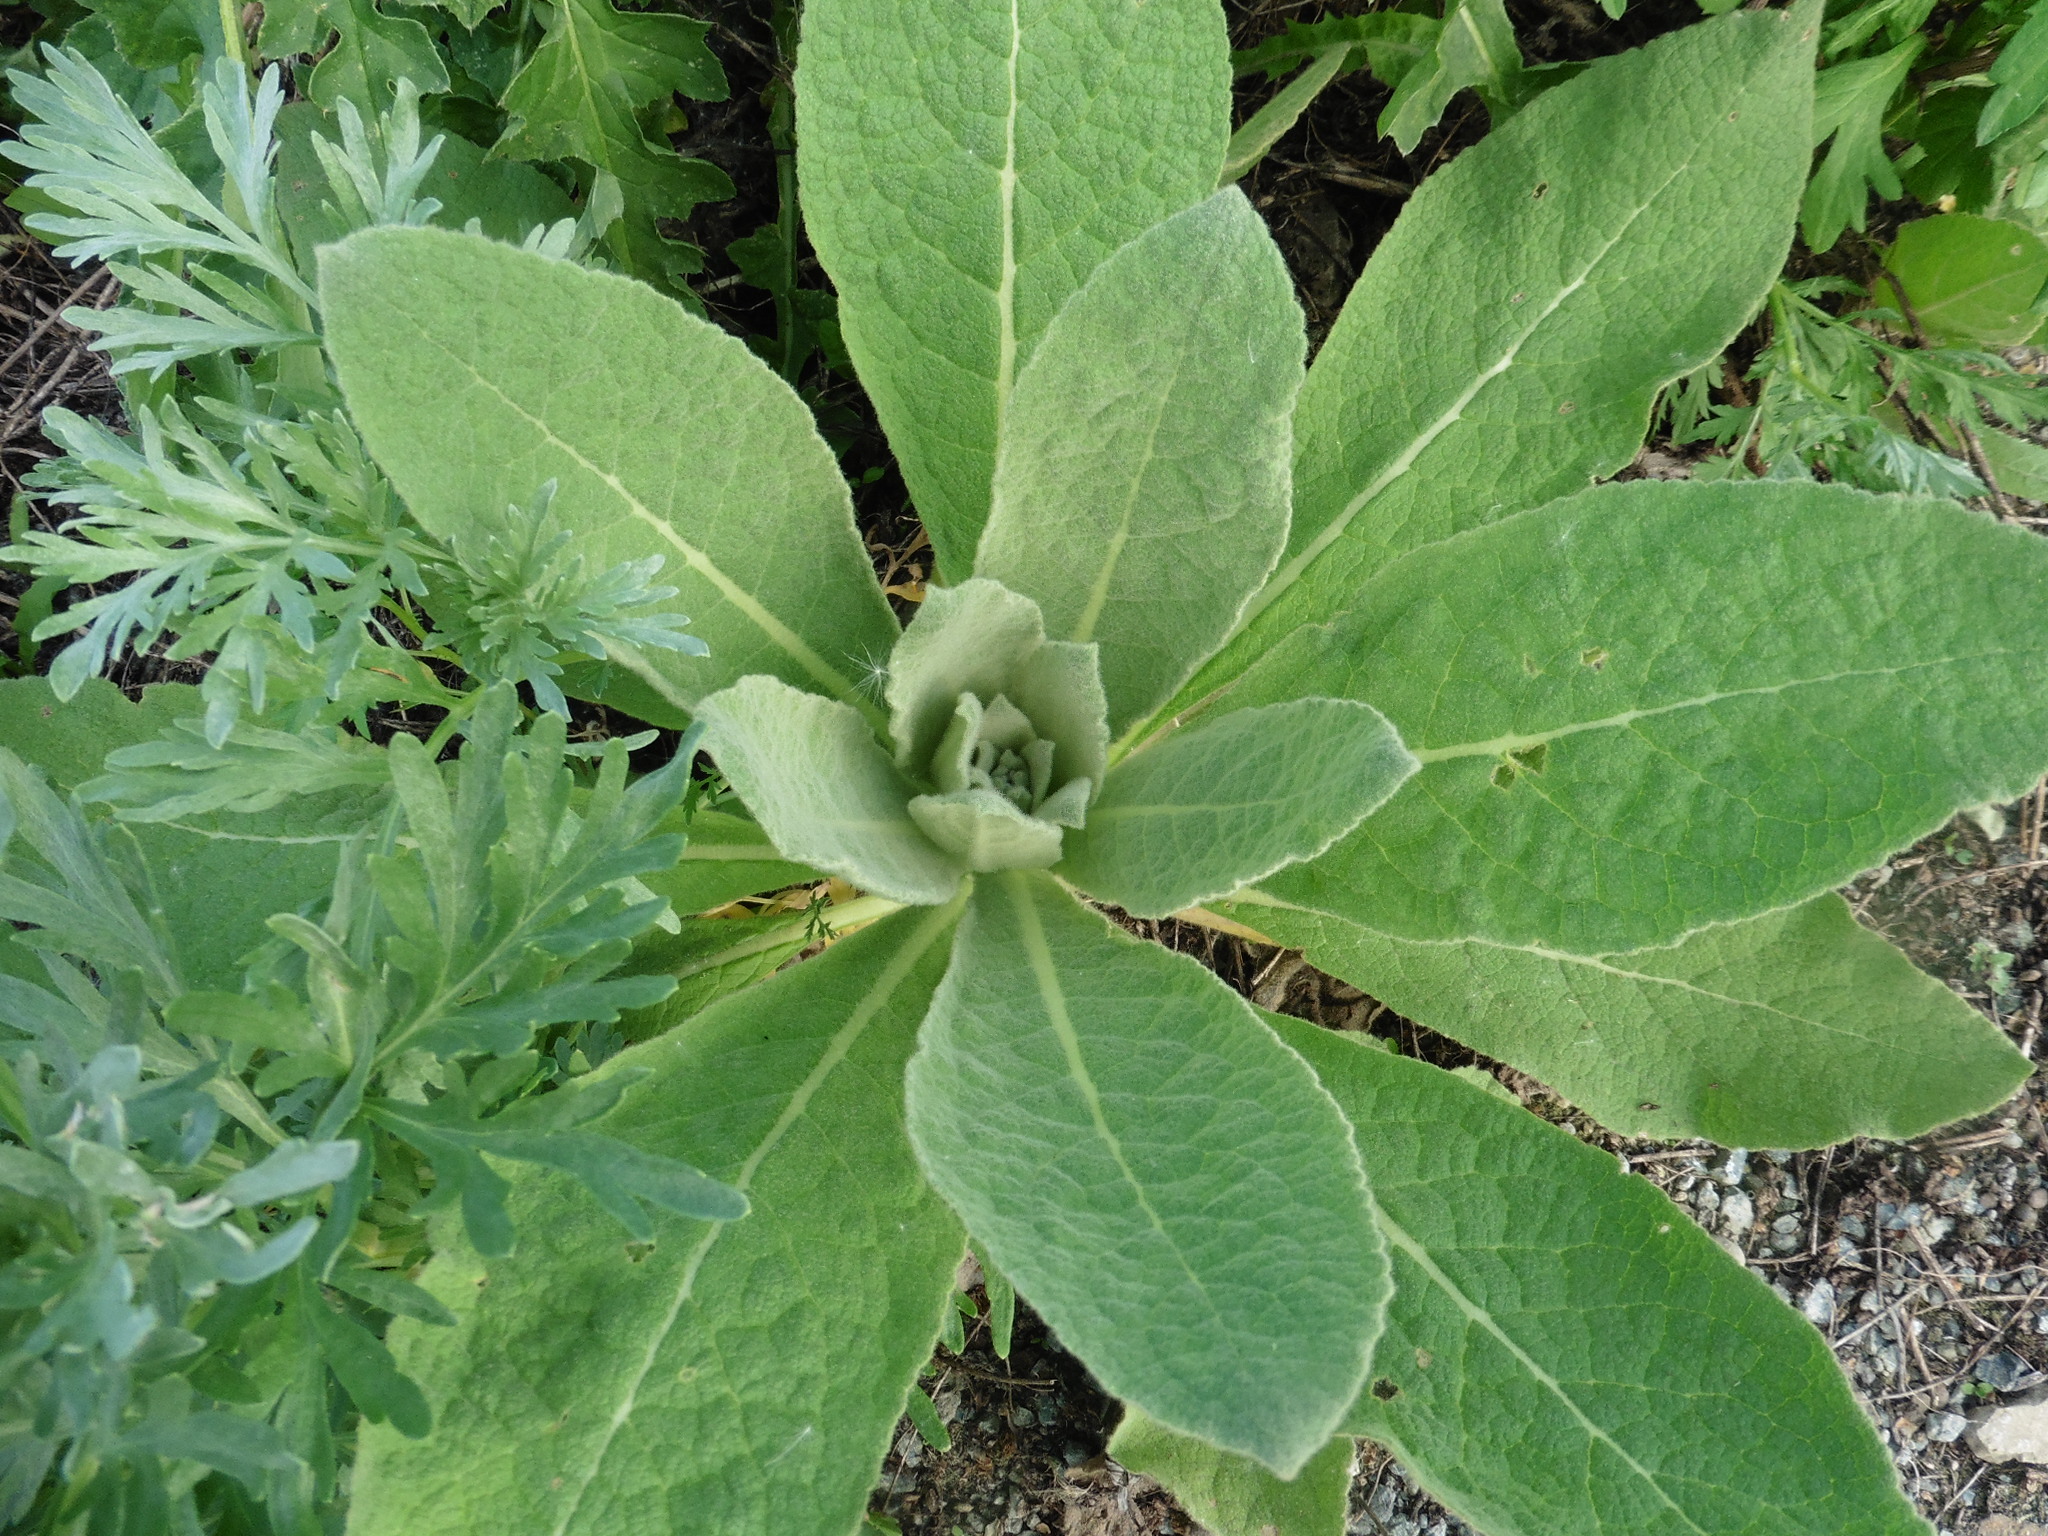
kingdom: Plantae
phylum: Tracheophyta
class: Magnoliopsida
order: Lamiales
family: Scrophulariaceae
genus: Verbascum
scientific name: Verbascum thapsus
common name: Common mullein
